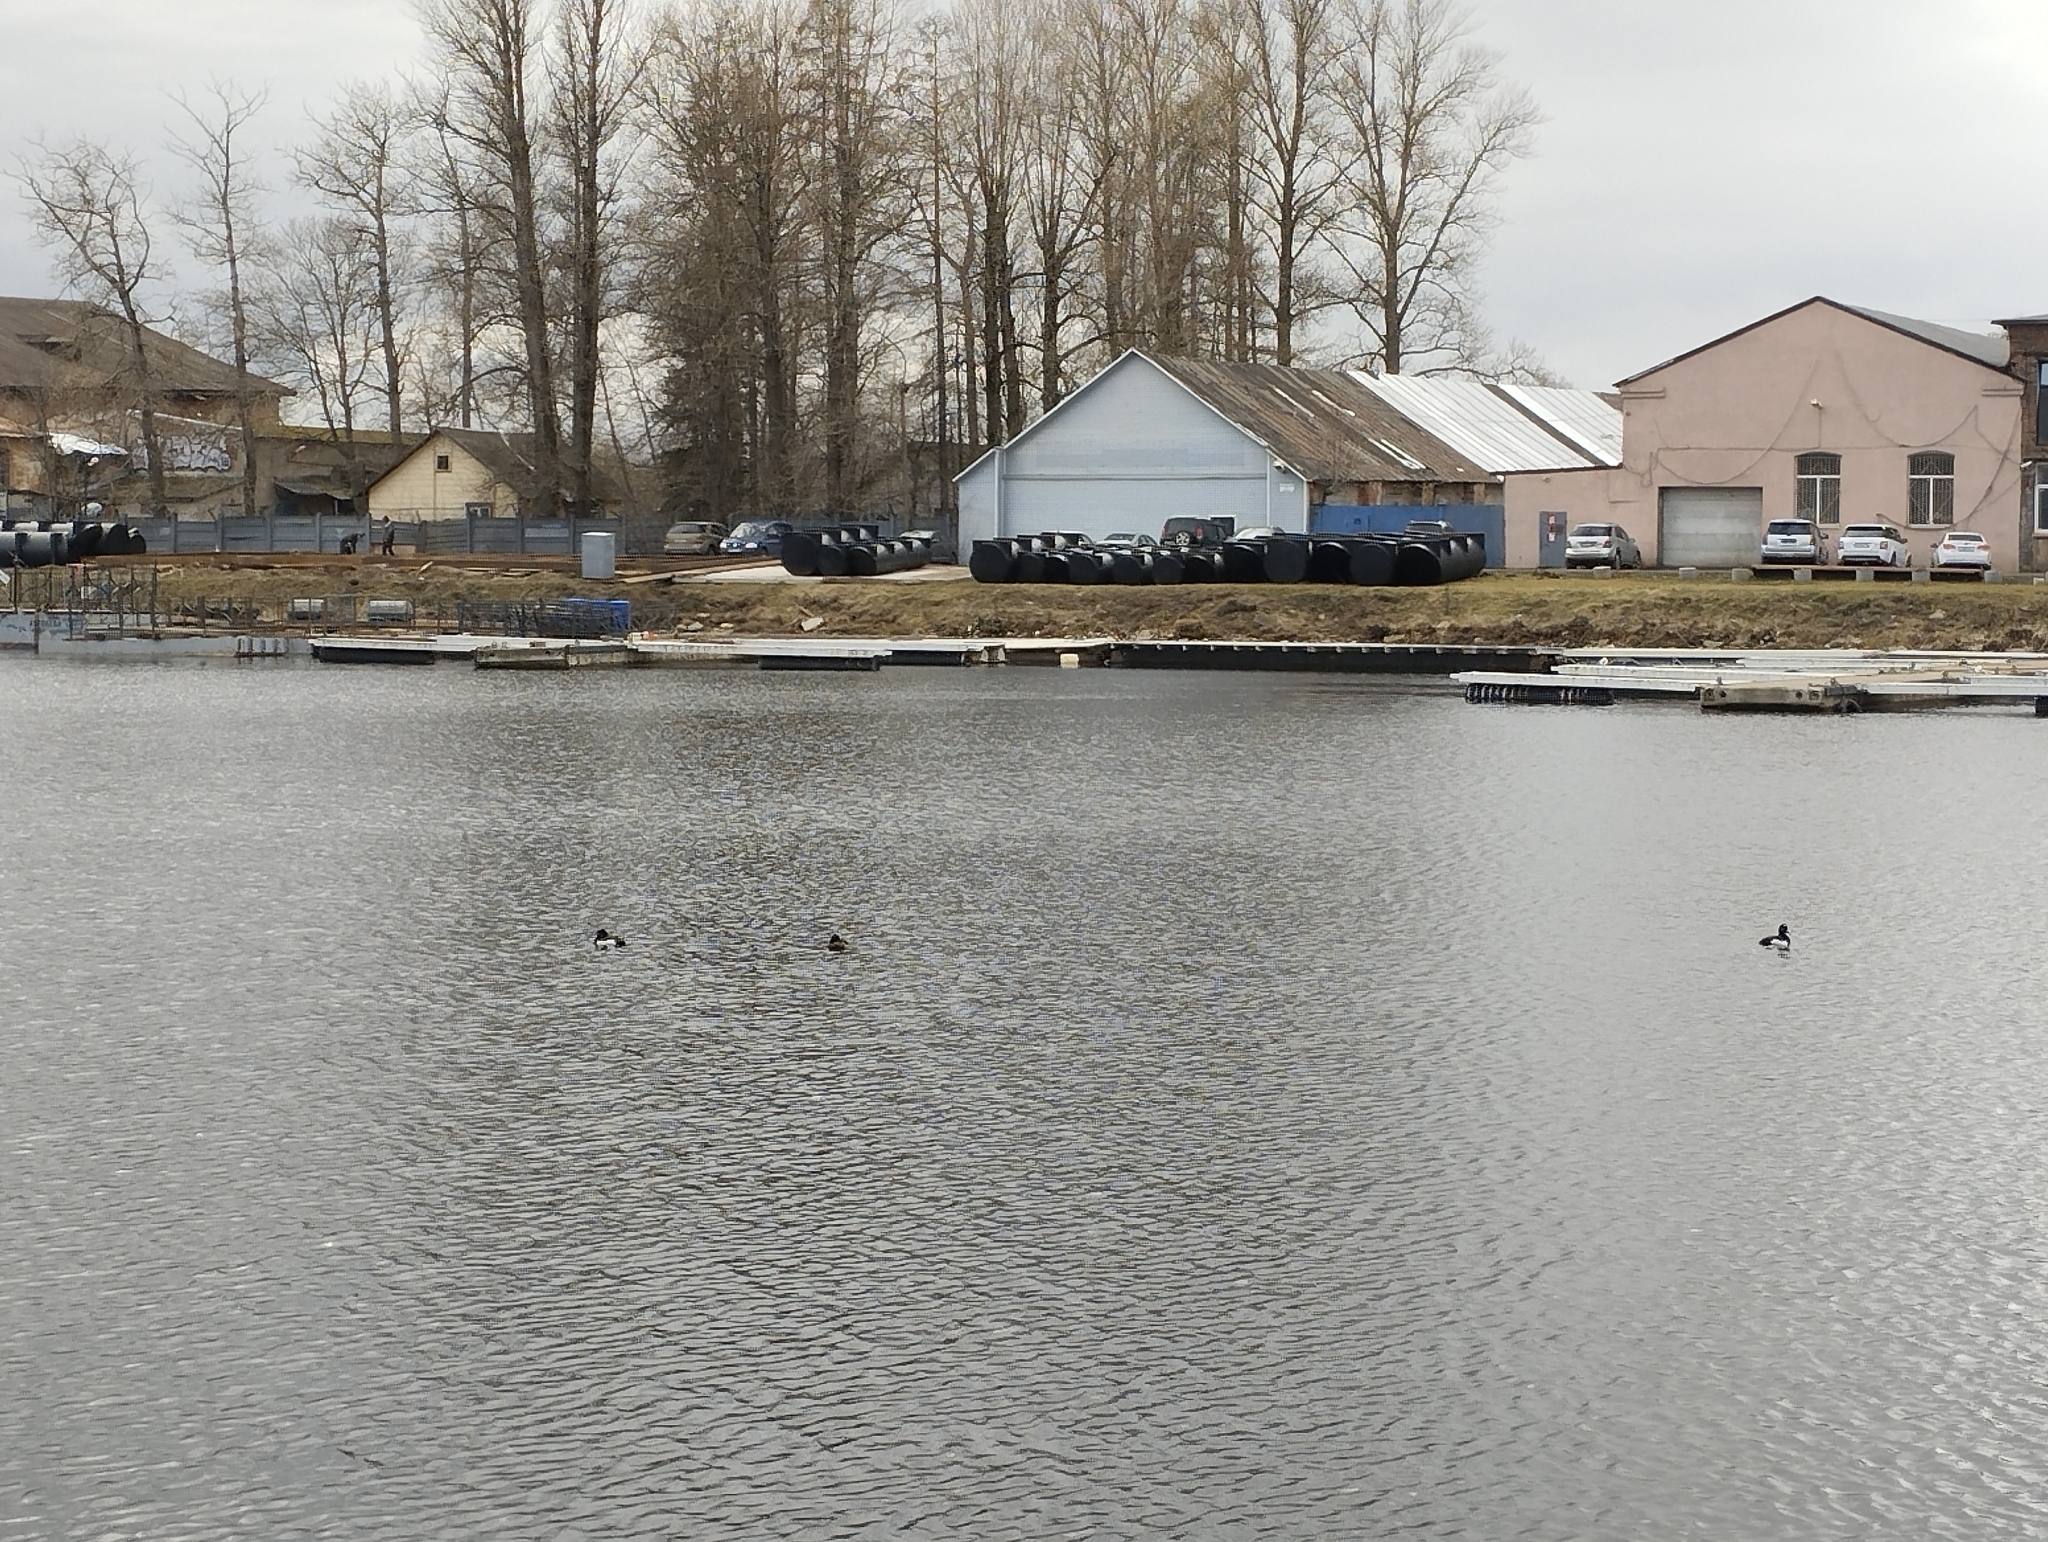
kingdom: Animalia
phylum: Chordata
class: Aves
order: Anseriformes
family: Anatidae
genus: Aythya
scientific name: Aythya fuligula
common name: Tufted duck
